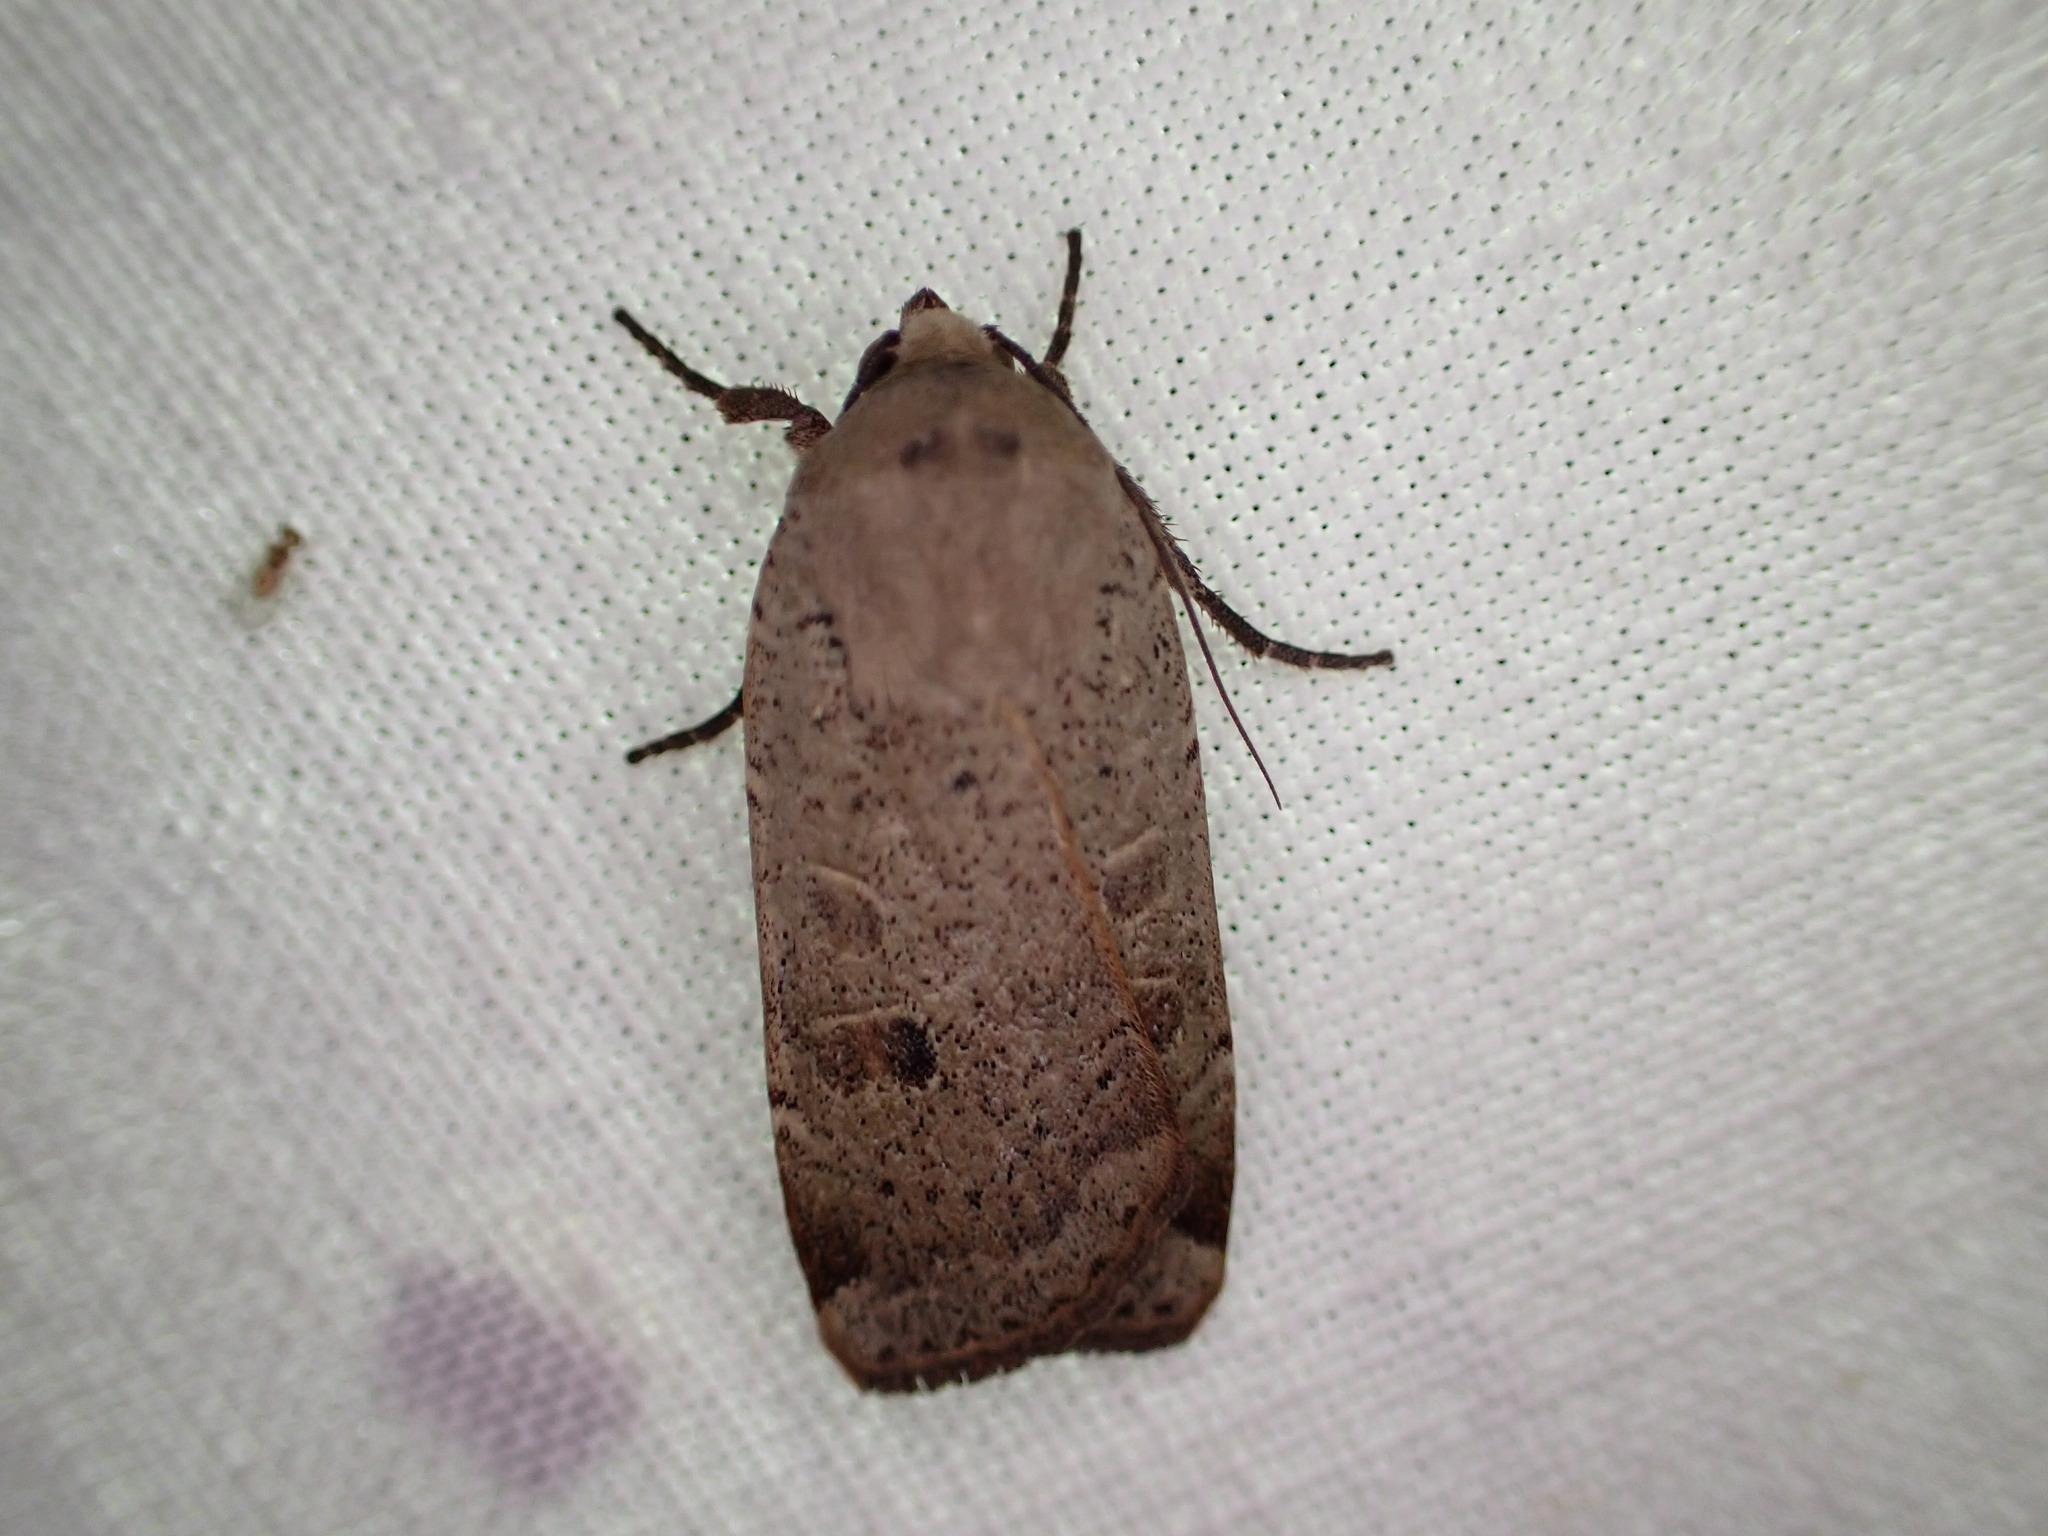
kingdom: Animalia
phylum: Arthropoda
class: Insecta
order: Lepidoptera
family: Noctuidae
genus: Noctua
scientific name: Noctua comes
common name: Lesser yellow underwing
